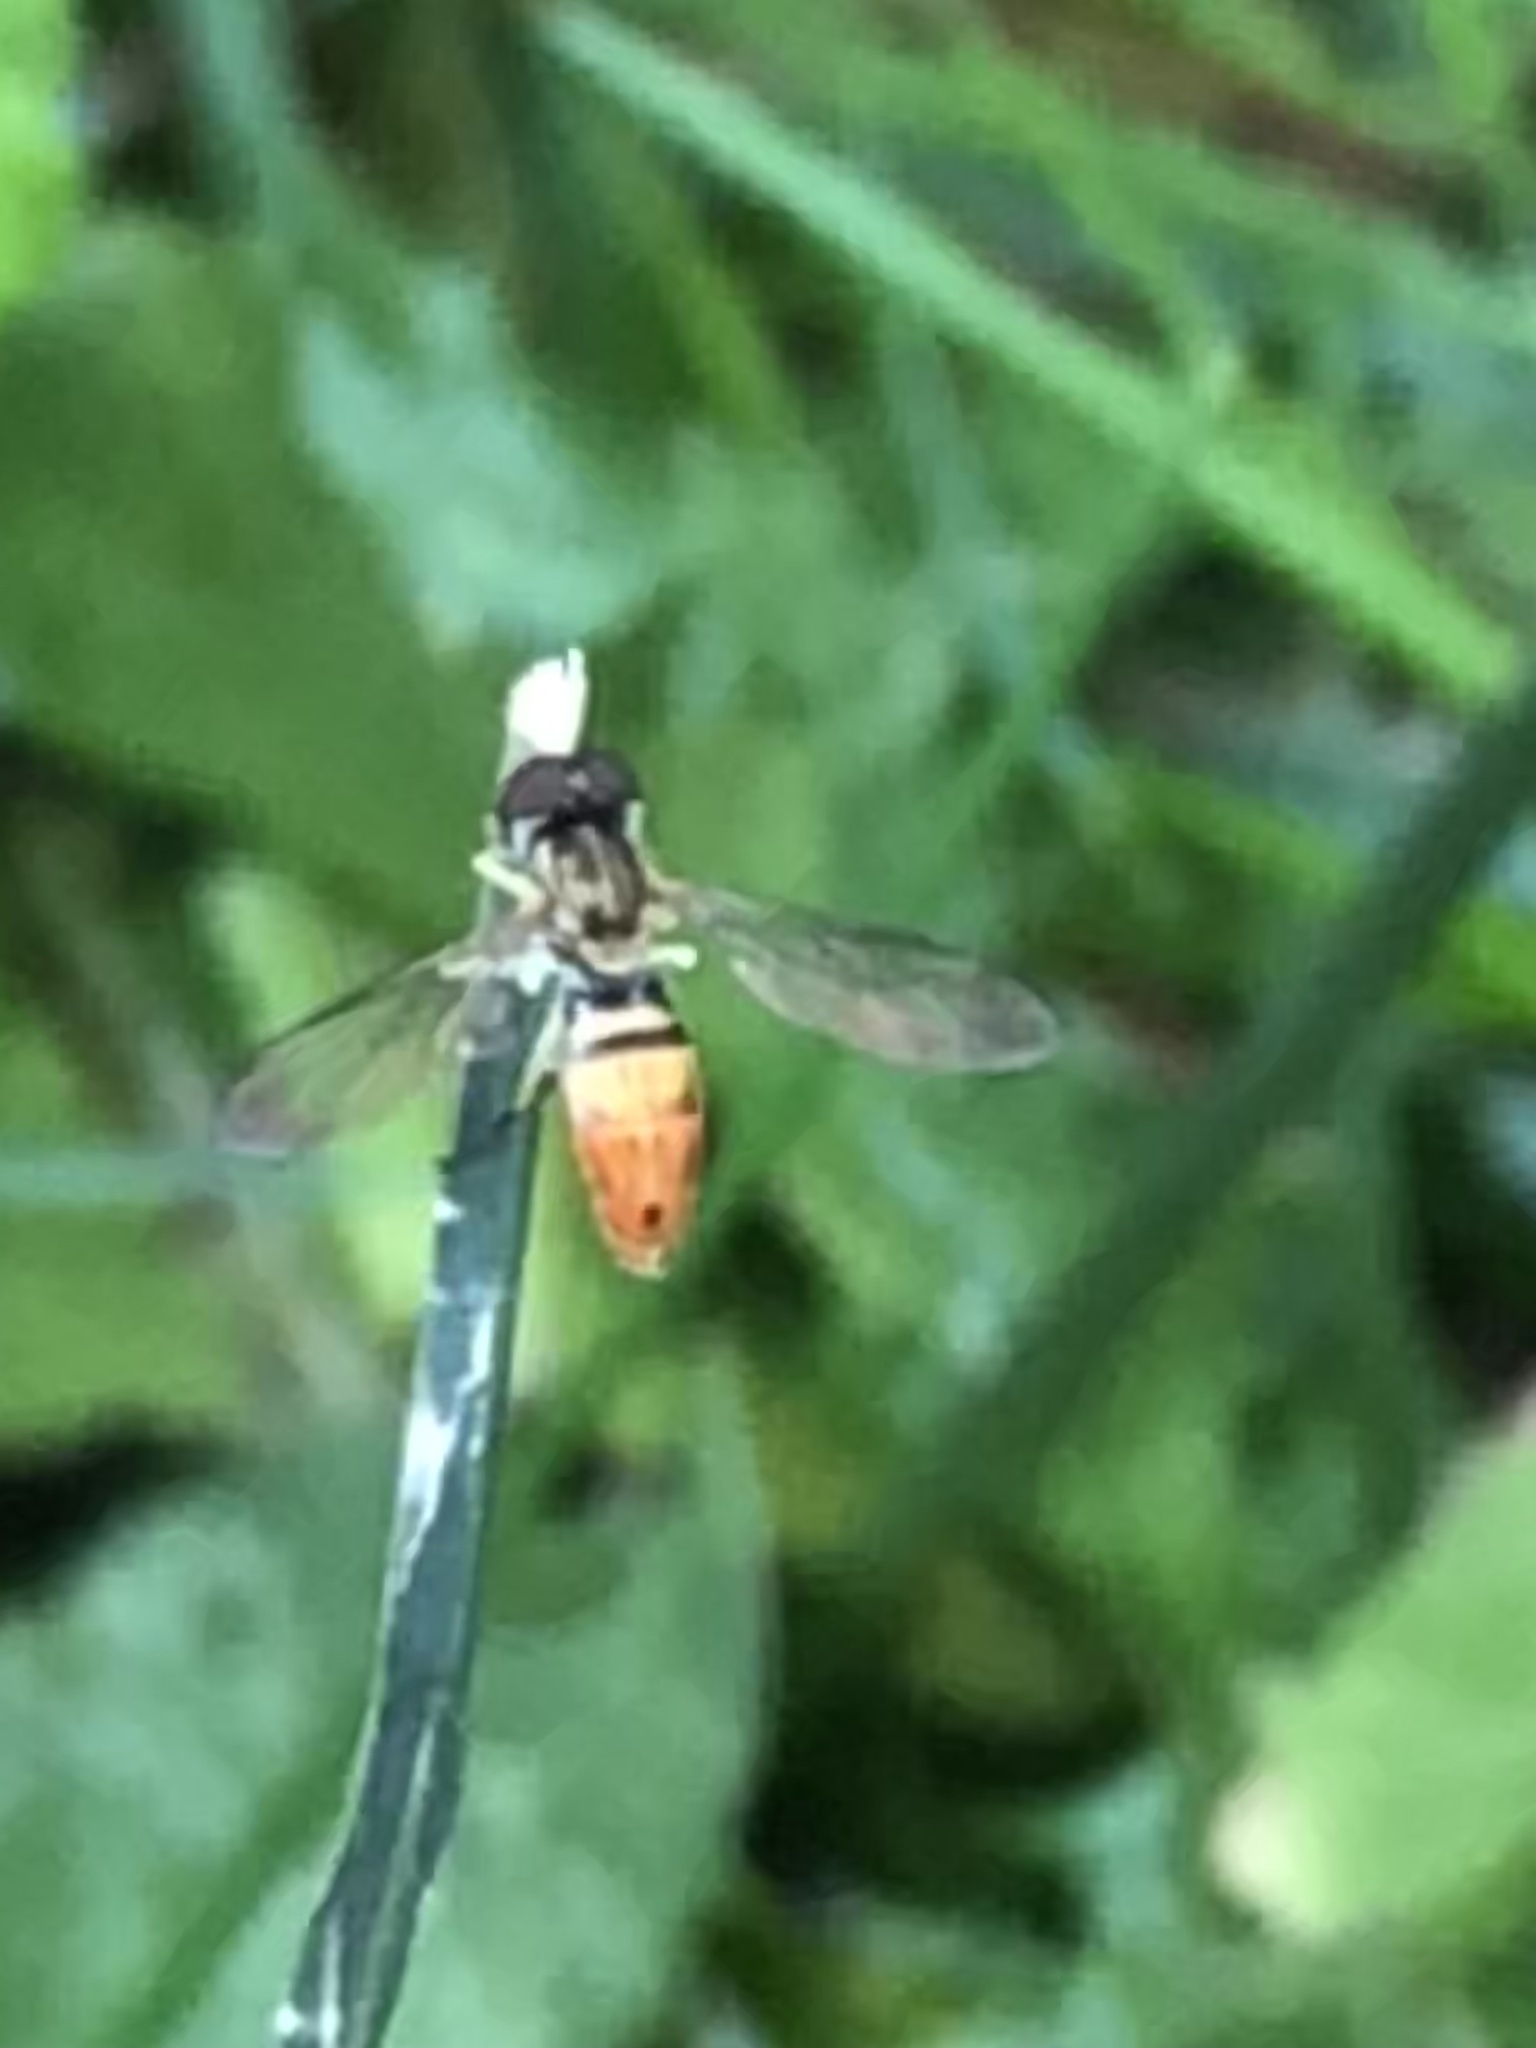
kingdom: Animalia
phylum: Arthropoda
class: Insecta
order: Diptera
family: Syrphidae
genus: Toxomerus
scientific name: Toxomerus marginatus
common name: Syrphid fly
